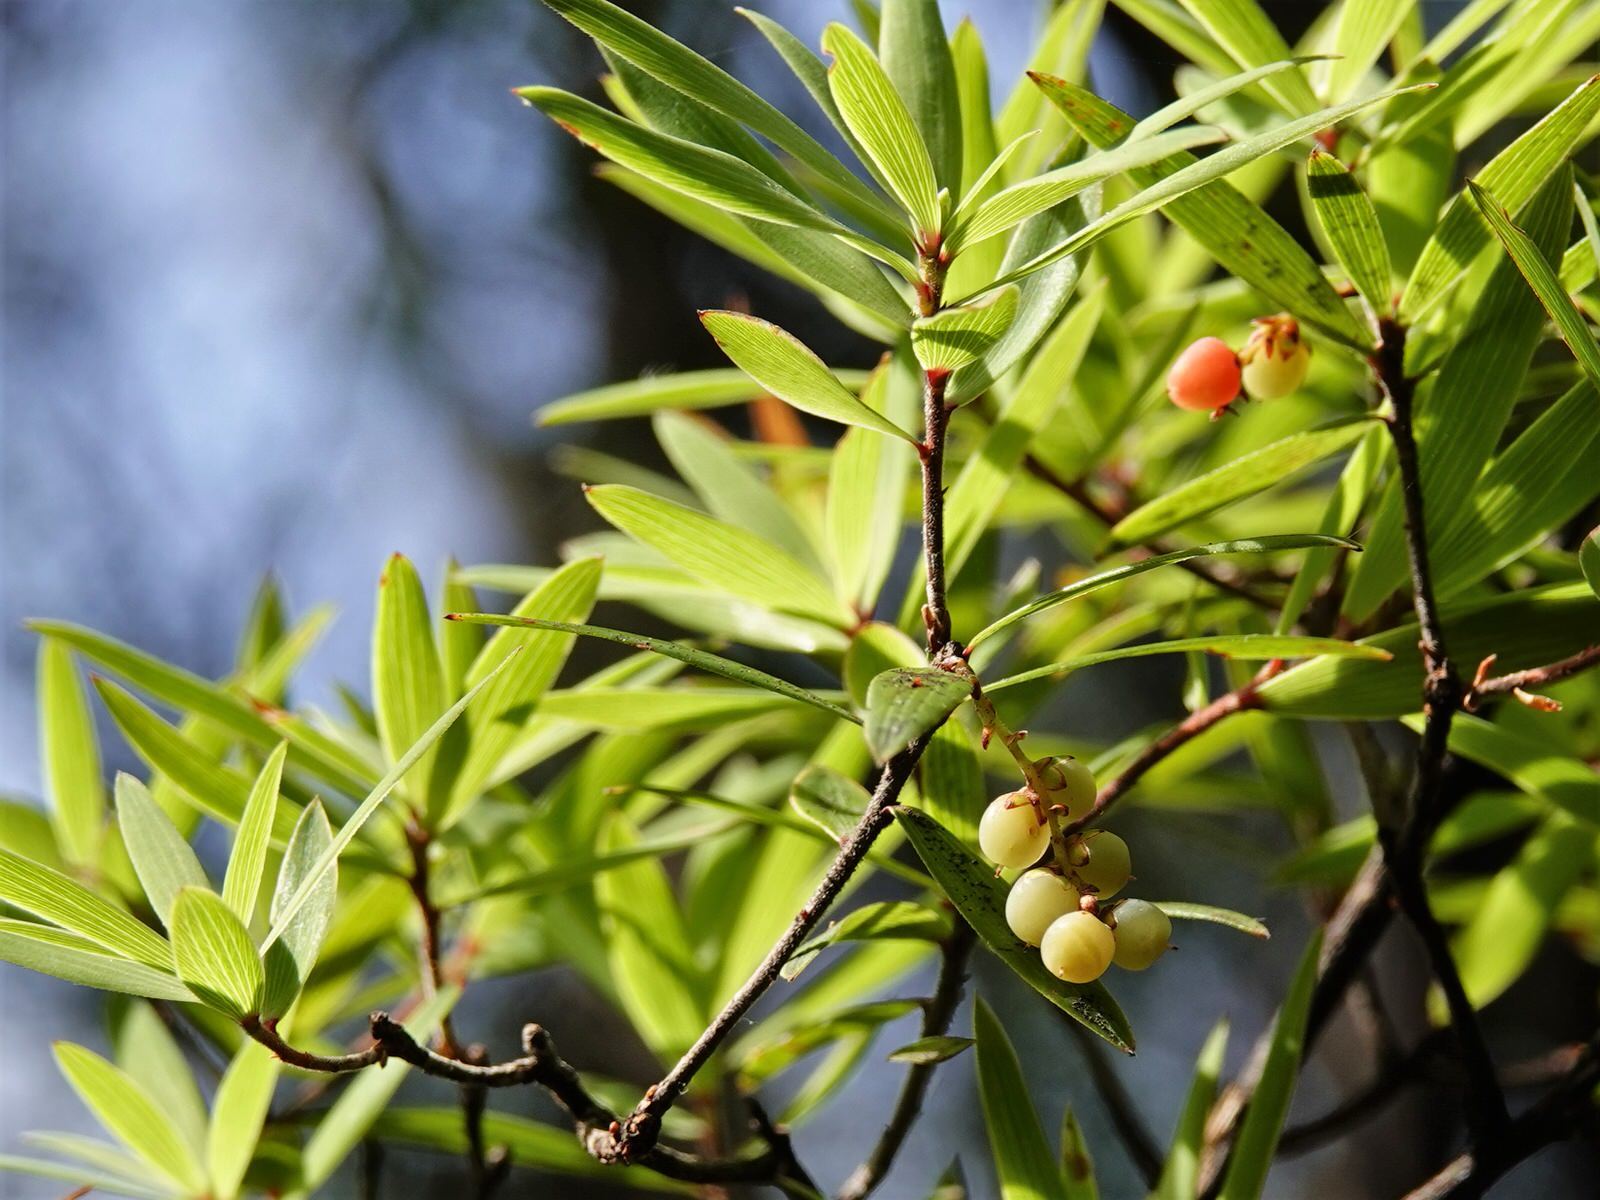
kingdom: Plantae
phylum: Tracheophyta
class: Magnoliopsida
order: Ericales
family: Ericaceae
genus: Leucopogon
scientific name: Leucopogon fasciculatus
